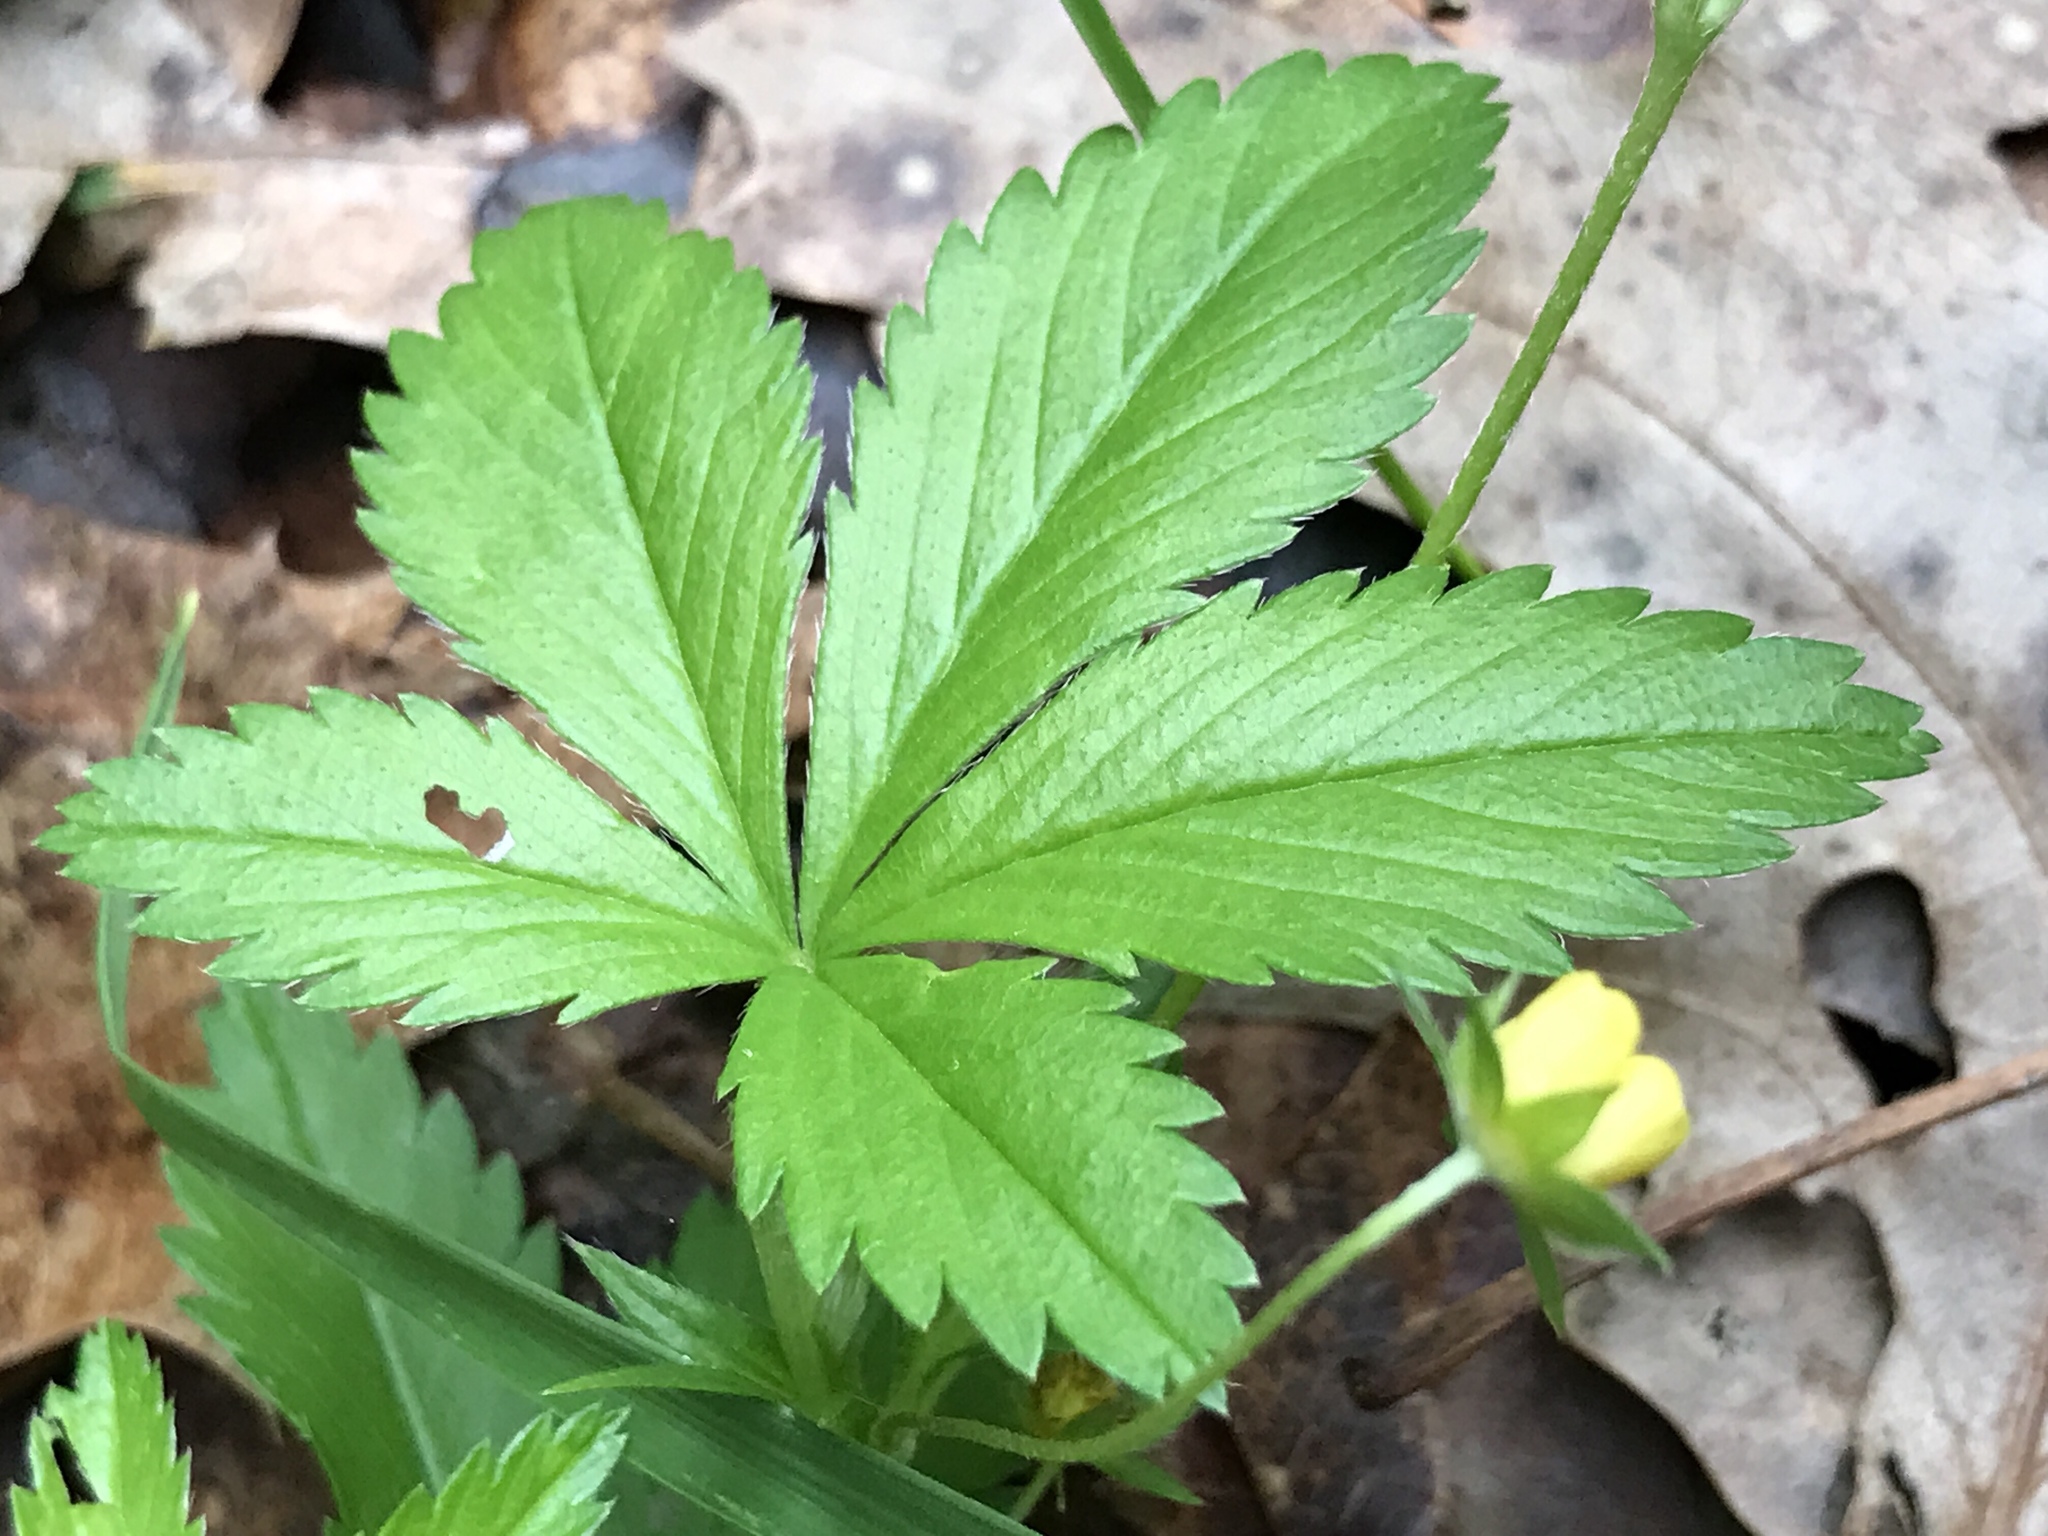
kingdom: Plantae
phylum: Tracheophyta
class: Magnoliopsida
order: Rosales
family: Rosaceae
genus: Potentilla
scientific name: Potentilla simplex
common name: Old field cinquefoil
